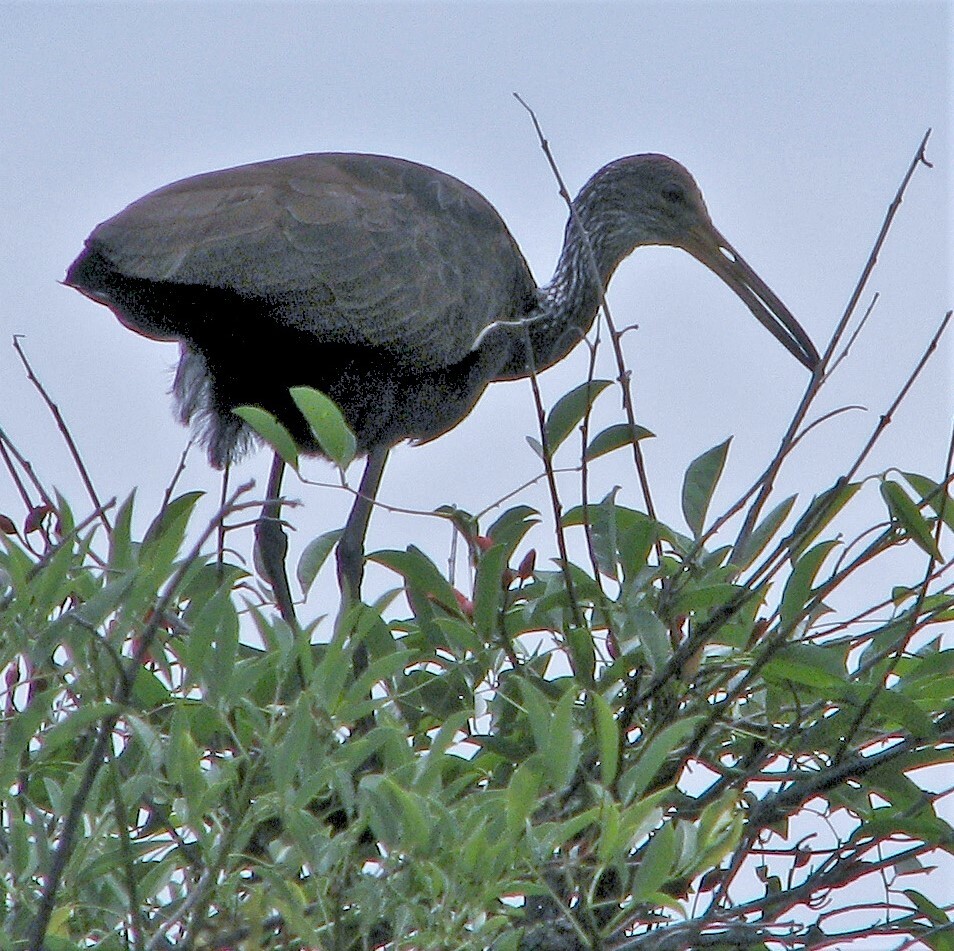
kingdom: Animalia
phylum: Chordata
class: Aves
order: Gruiformes
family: Aramidae
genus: Aramus
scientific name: Aramus guarauna
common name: Limpkin
